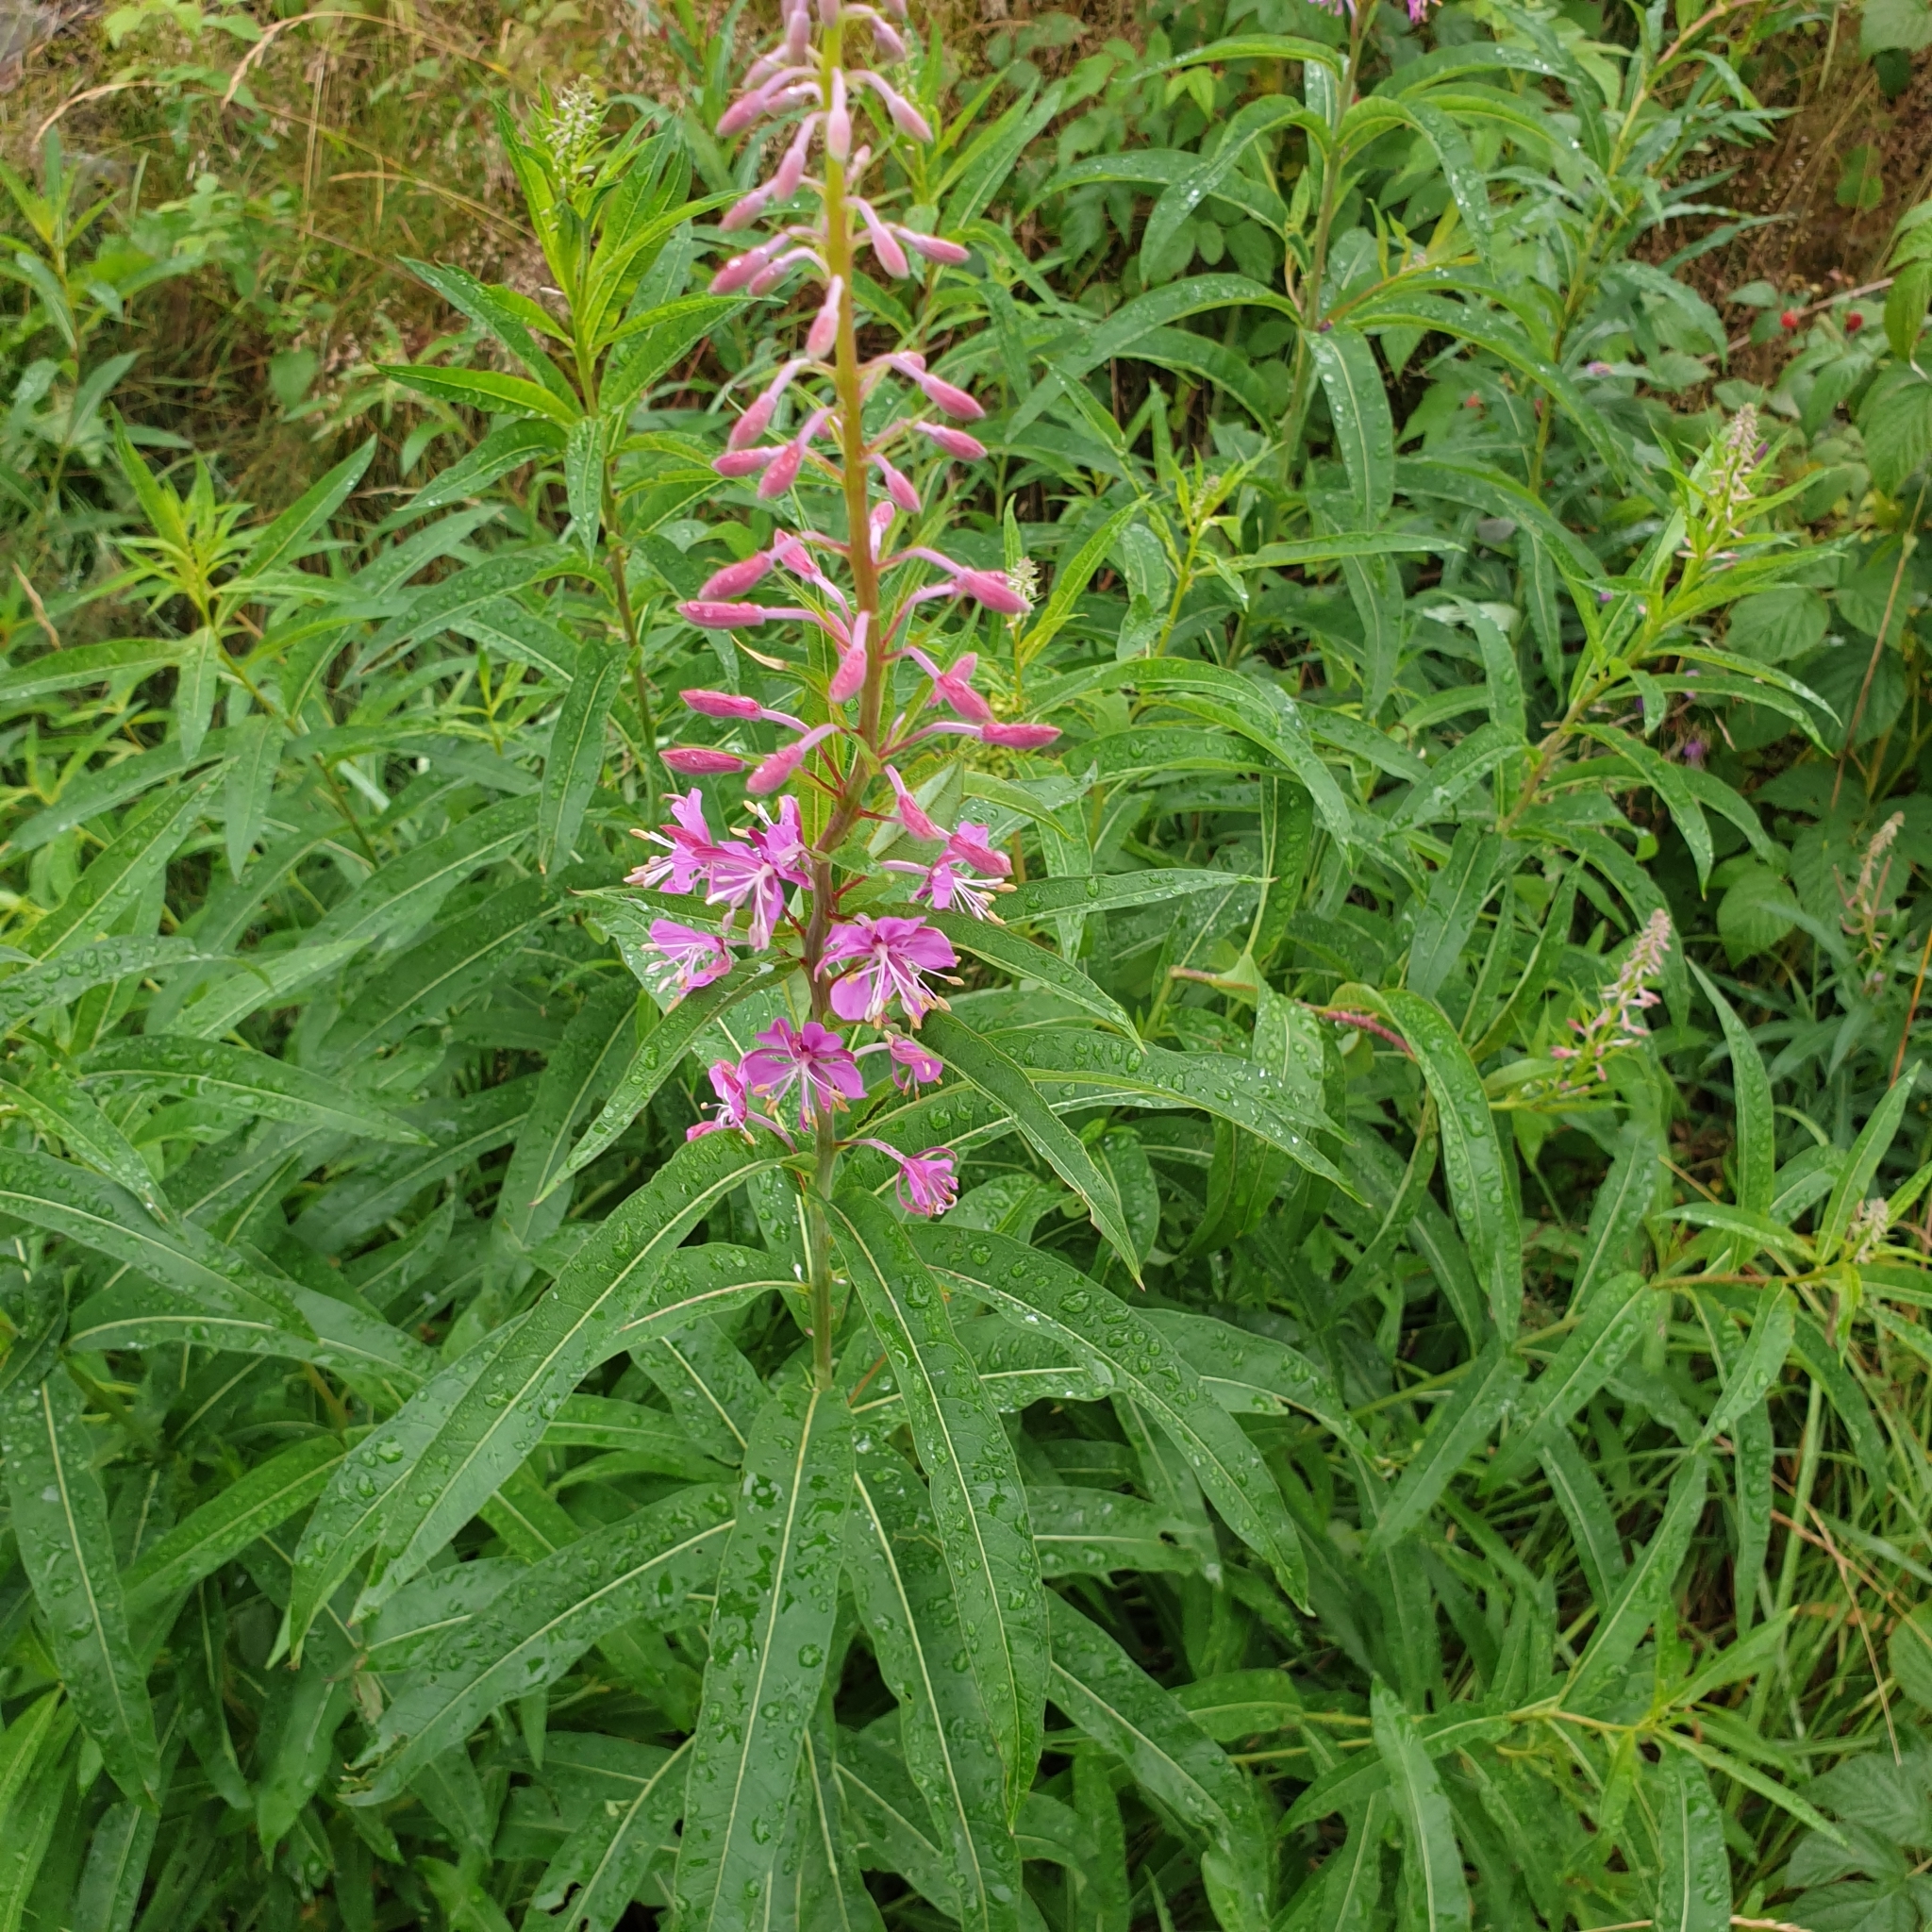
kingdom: Plantae
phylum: Tracheophyta
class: Magnoliopsida
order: Myrtales
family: Onagraceae
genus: Chamaenerion
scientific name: Chamaenerion angustifolium
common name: Fireweed
